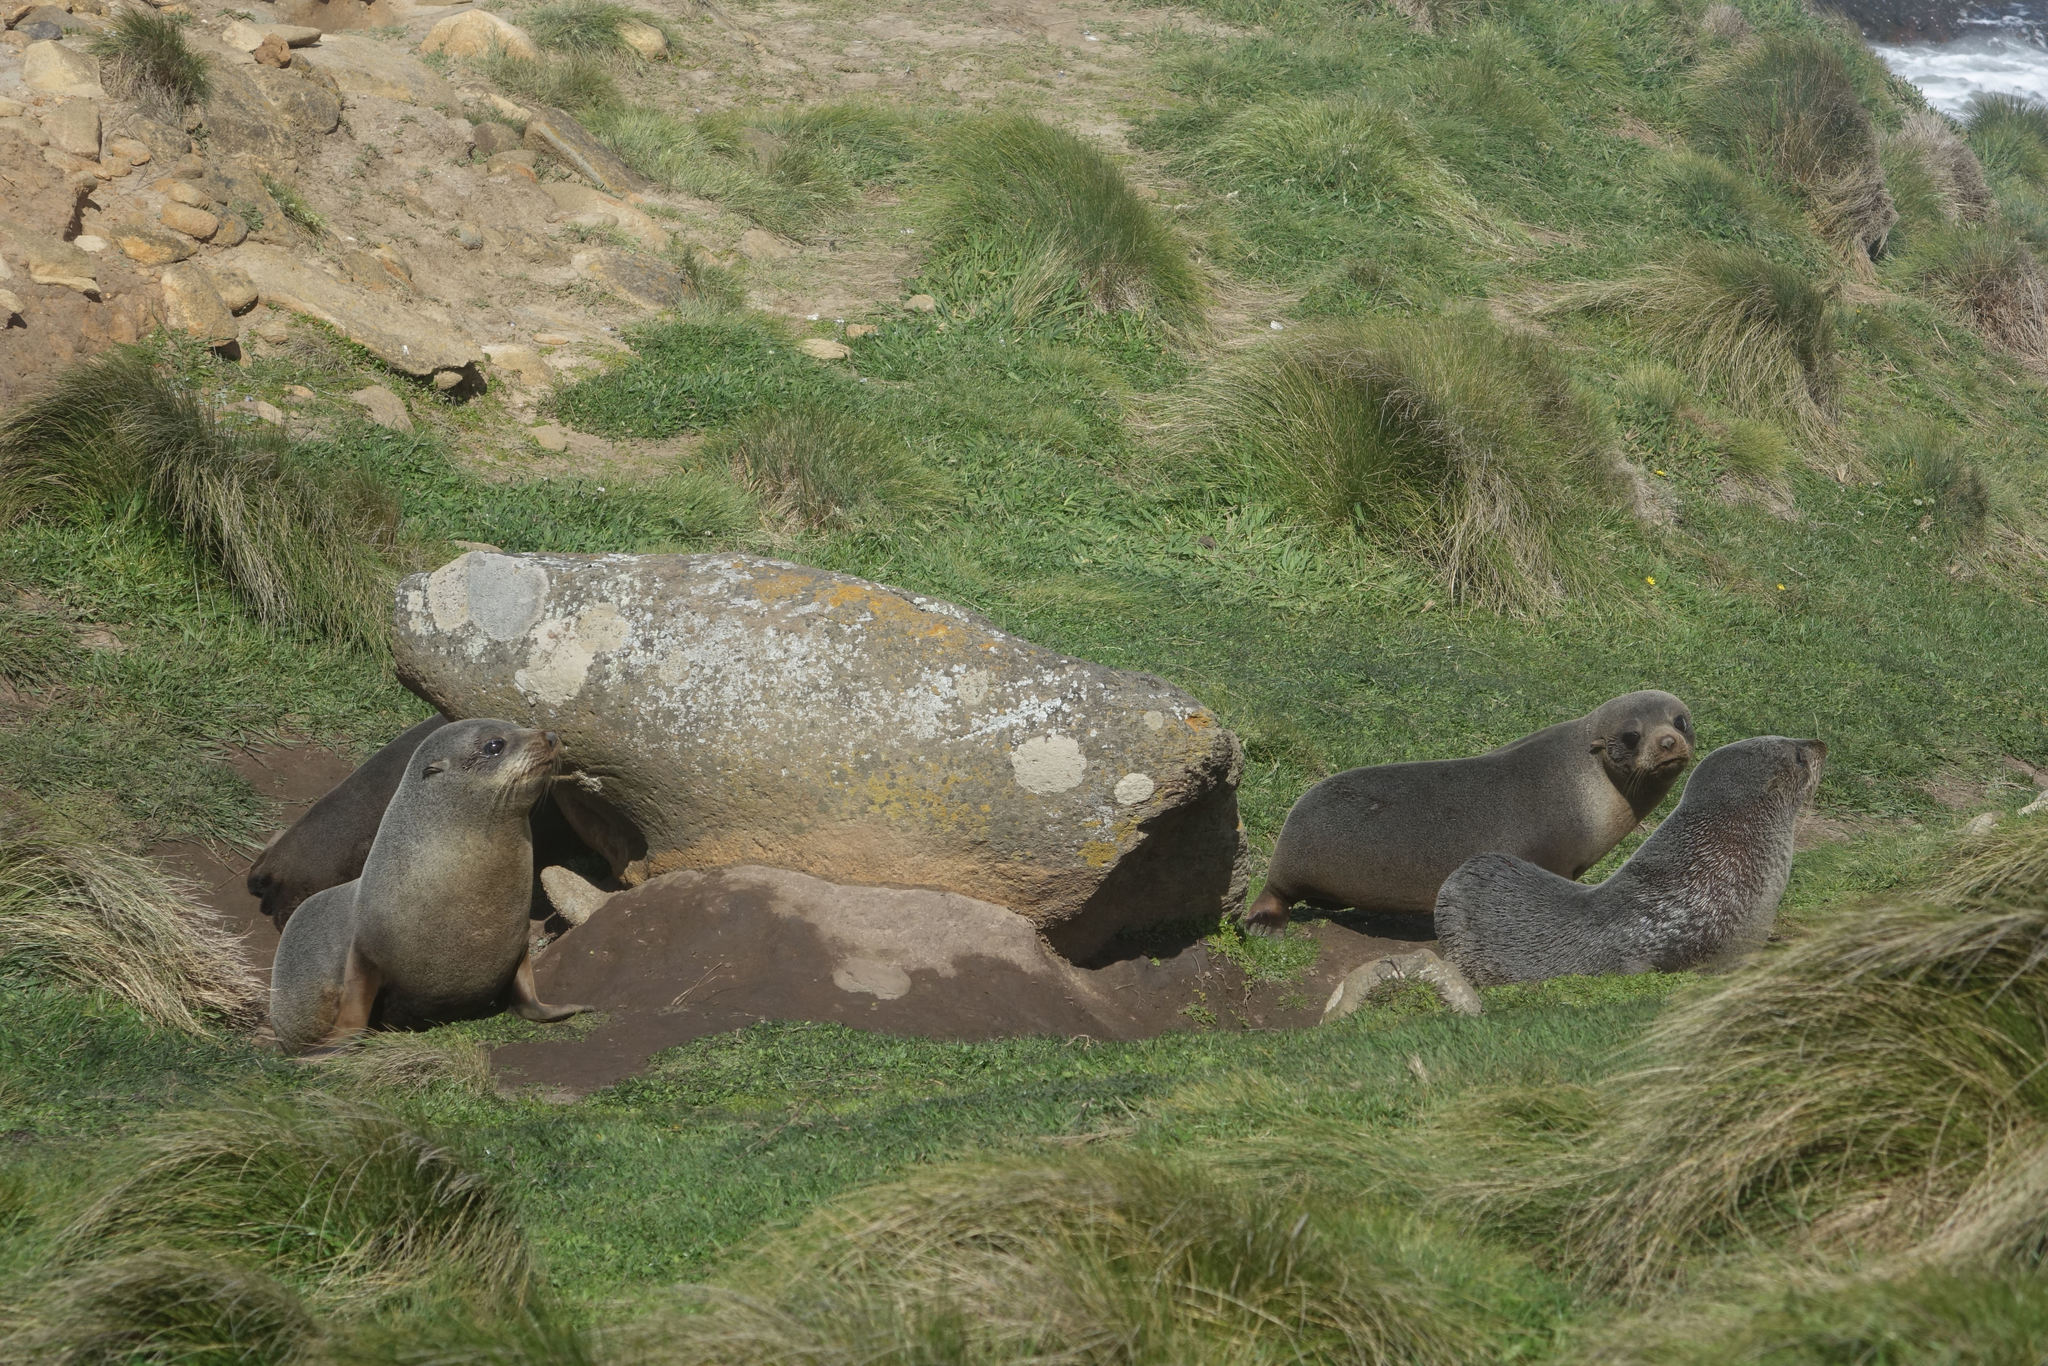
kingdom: Animalia
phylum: Chordata
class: Mammalia
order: Carnivora
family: Otariidae
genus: Arctocephalus
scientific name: Arctocephalus forsteri
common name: New zealand fur seal
